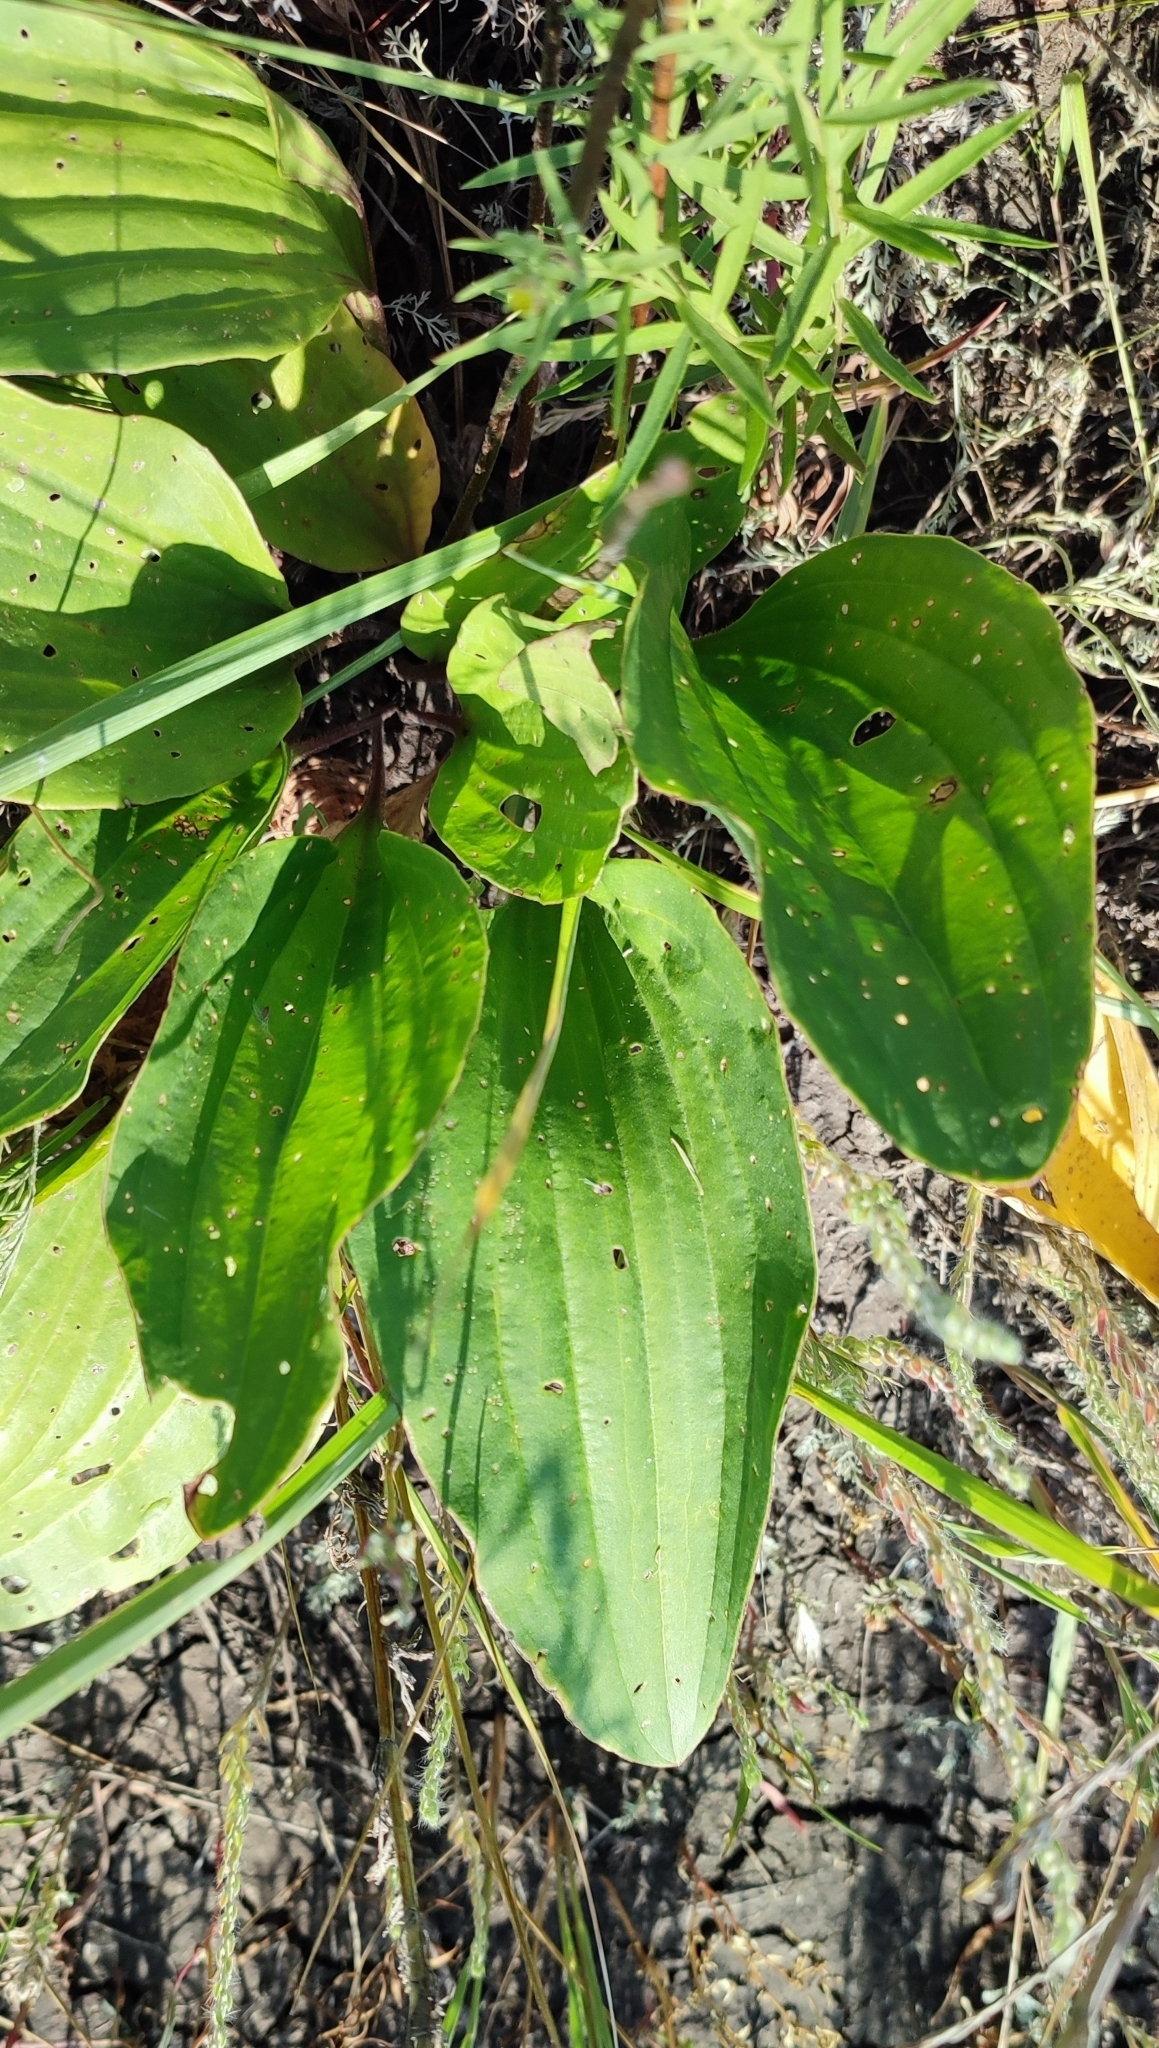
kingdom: Plantae
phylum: Tracheophyta
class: Magnoliopsida
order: Lamiales
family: Plantaginaceae
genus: Plantago
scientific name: Plantago cornuti
